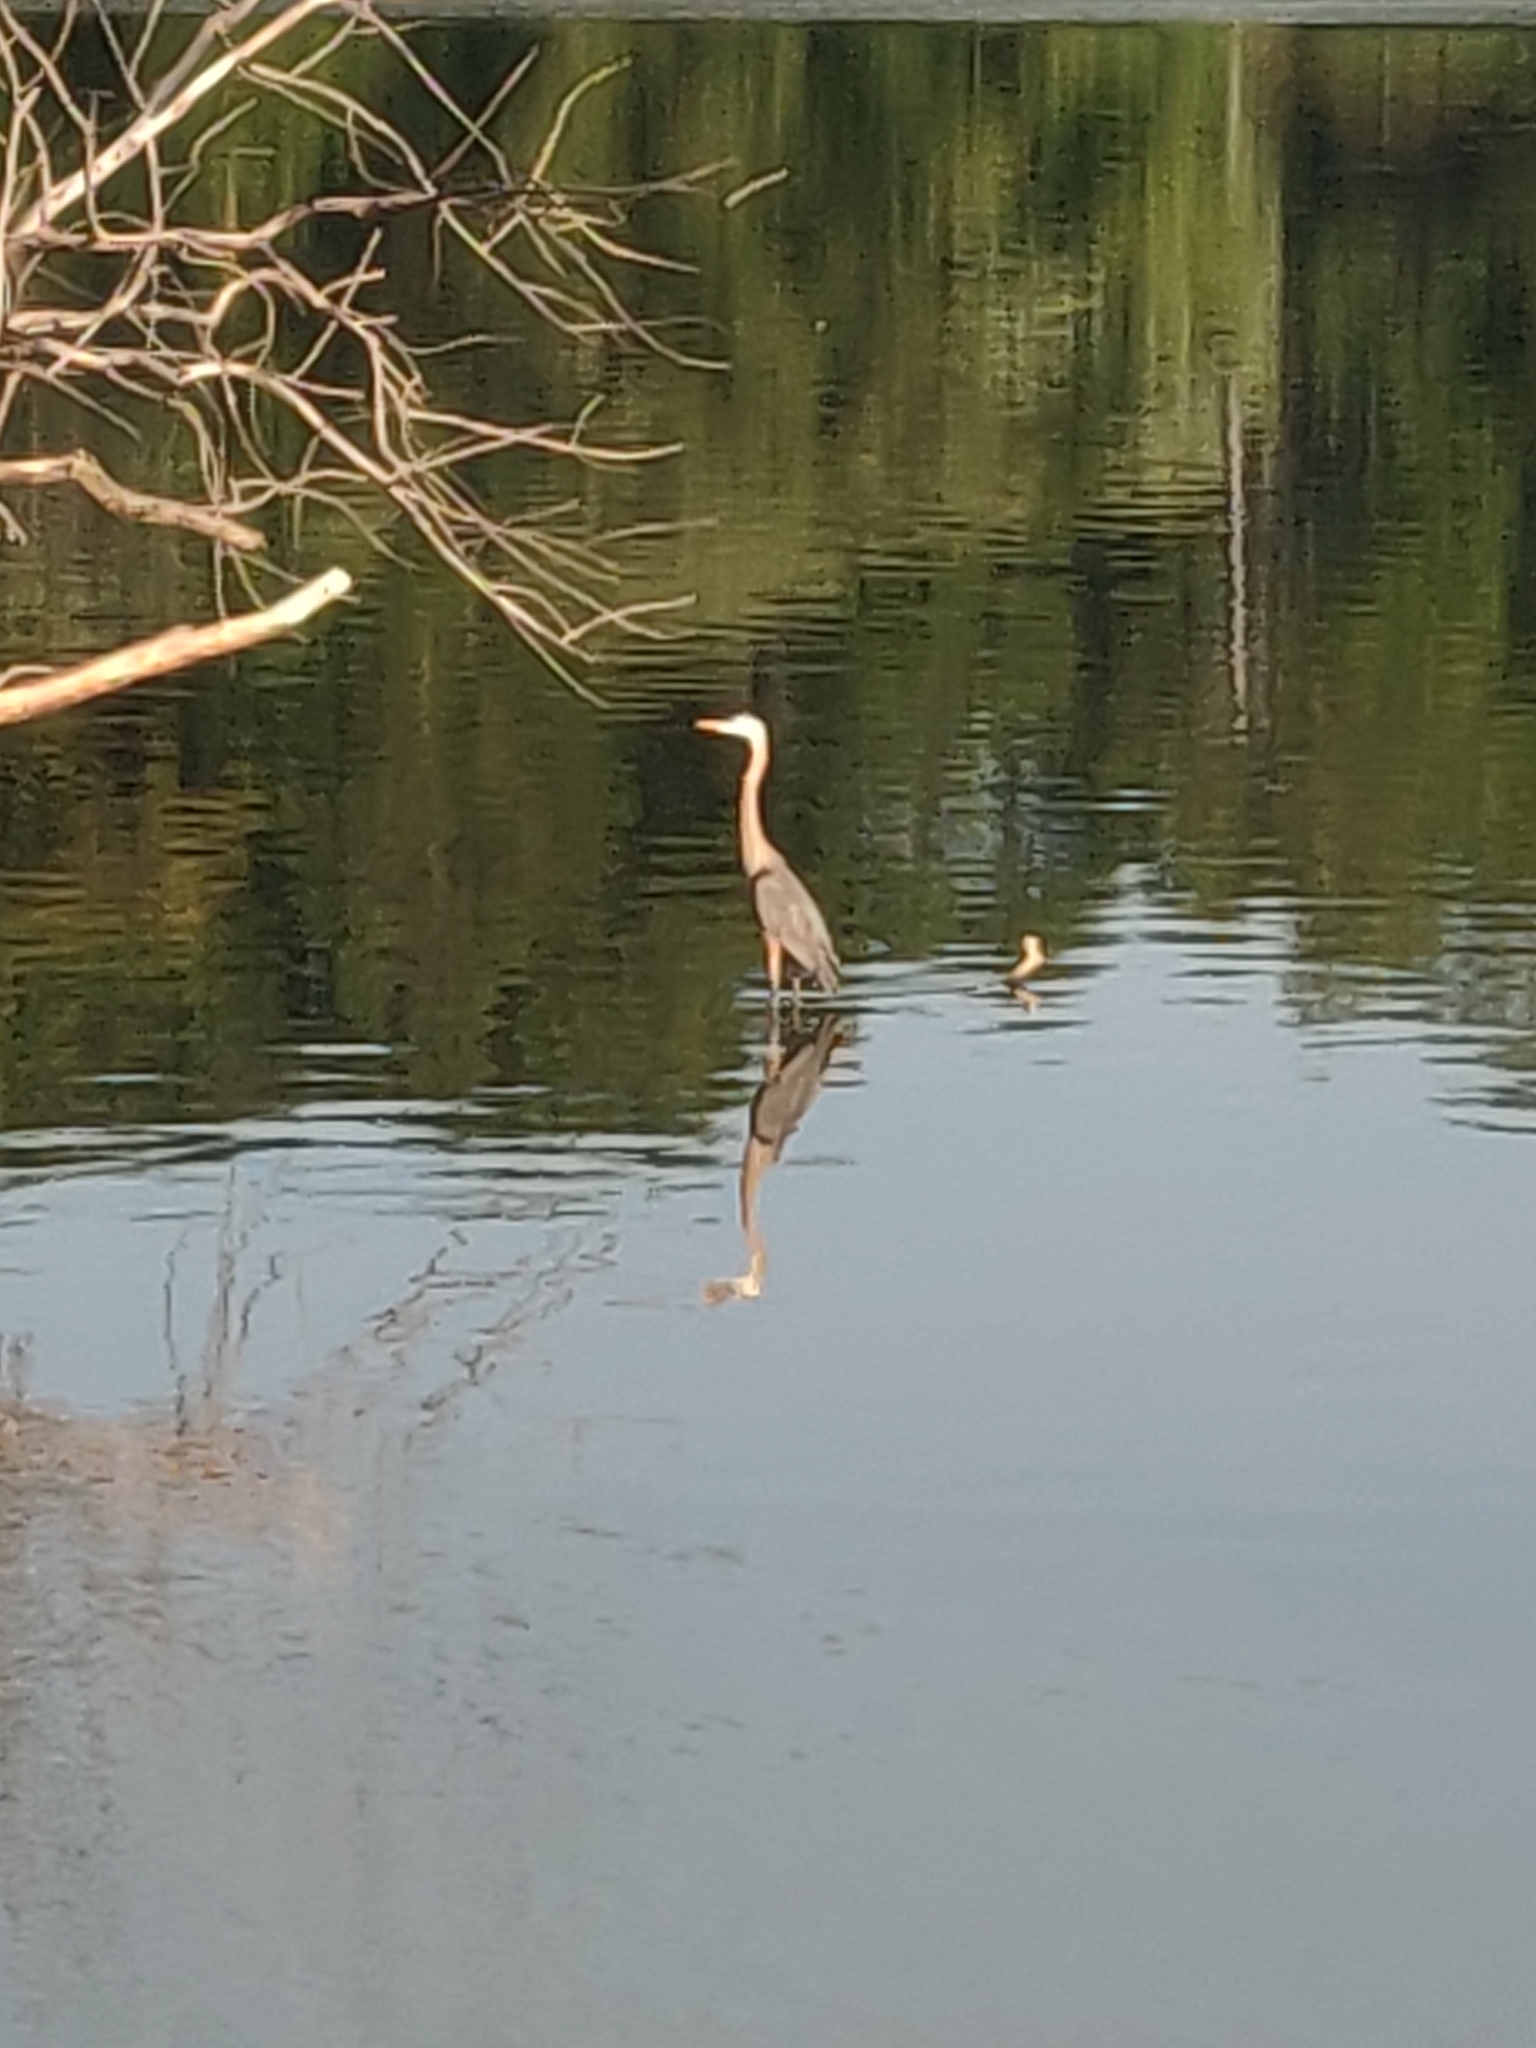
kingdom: Animalia
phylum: Chordata
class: Aves
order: Pelecaniformes
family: Ardeidae
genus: Ardea
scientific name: Ardea herodias
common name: Great blue heron
